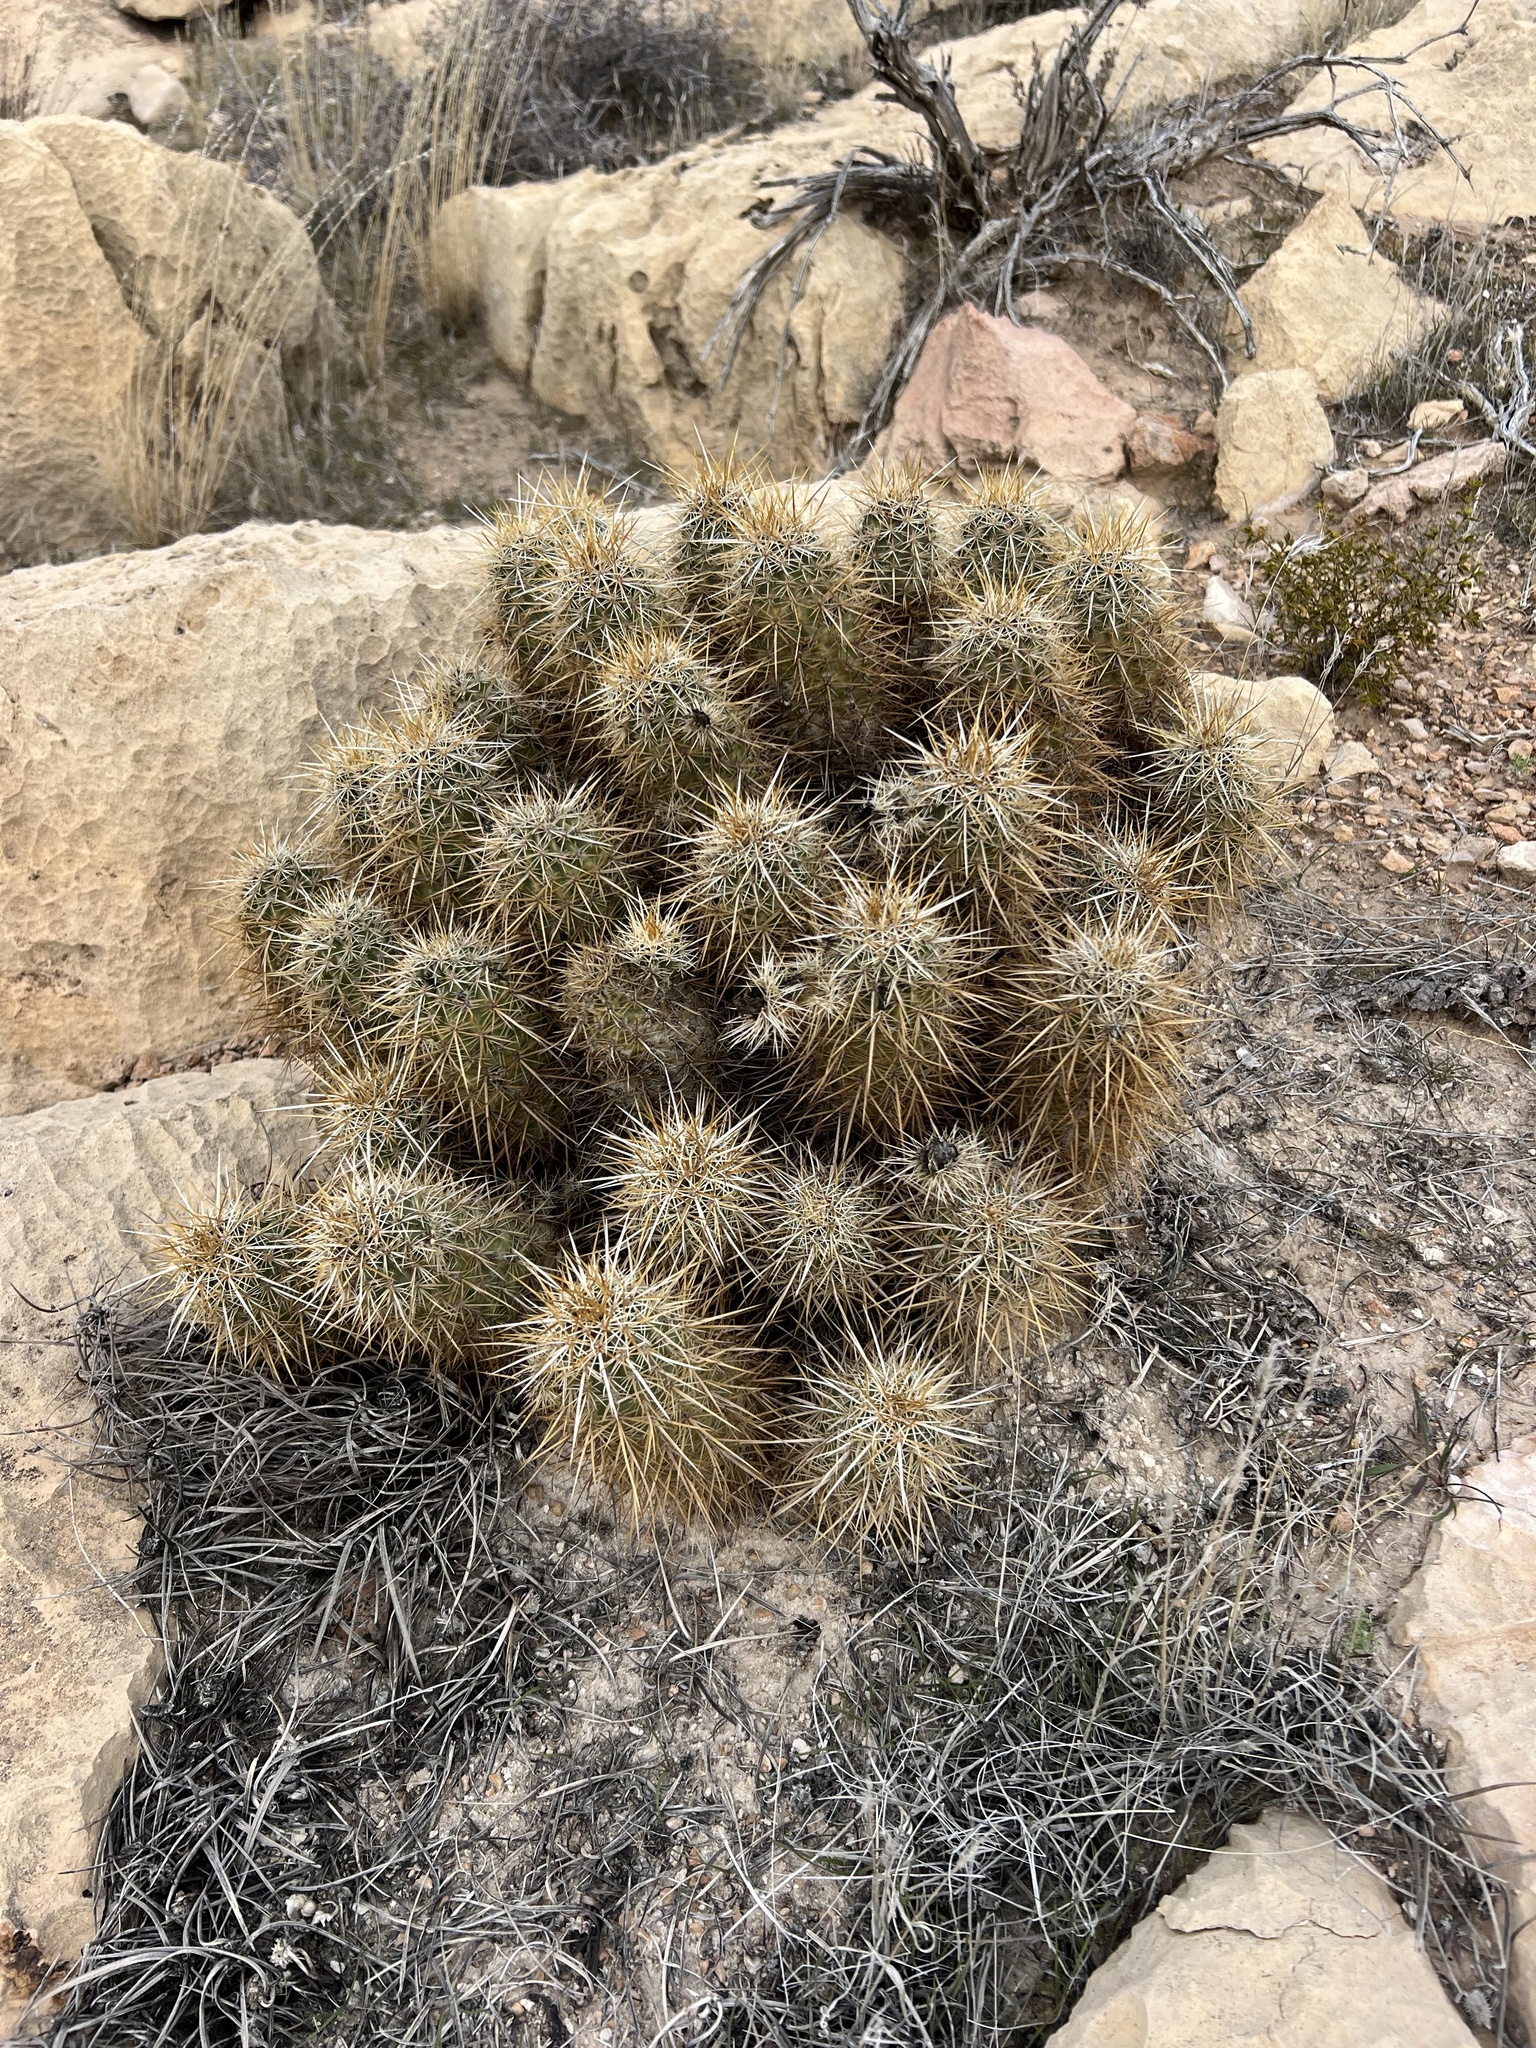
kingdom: Plantae
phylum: Tracheophyta
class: Magnoliopsida
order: Caryophyllales
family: Cactaceae
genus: Echinocereus
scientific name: Echinocereus engelmannii
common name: Engelmann's hedgehog cactus
